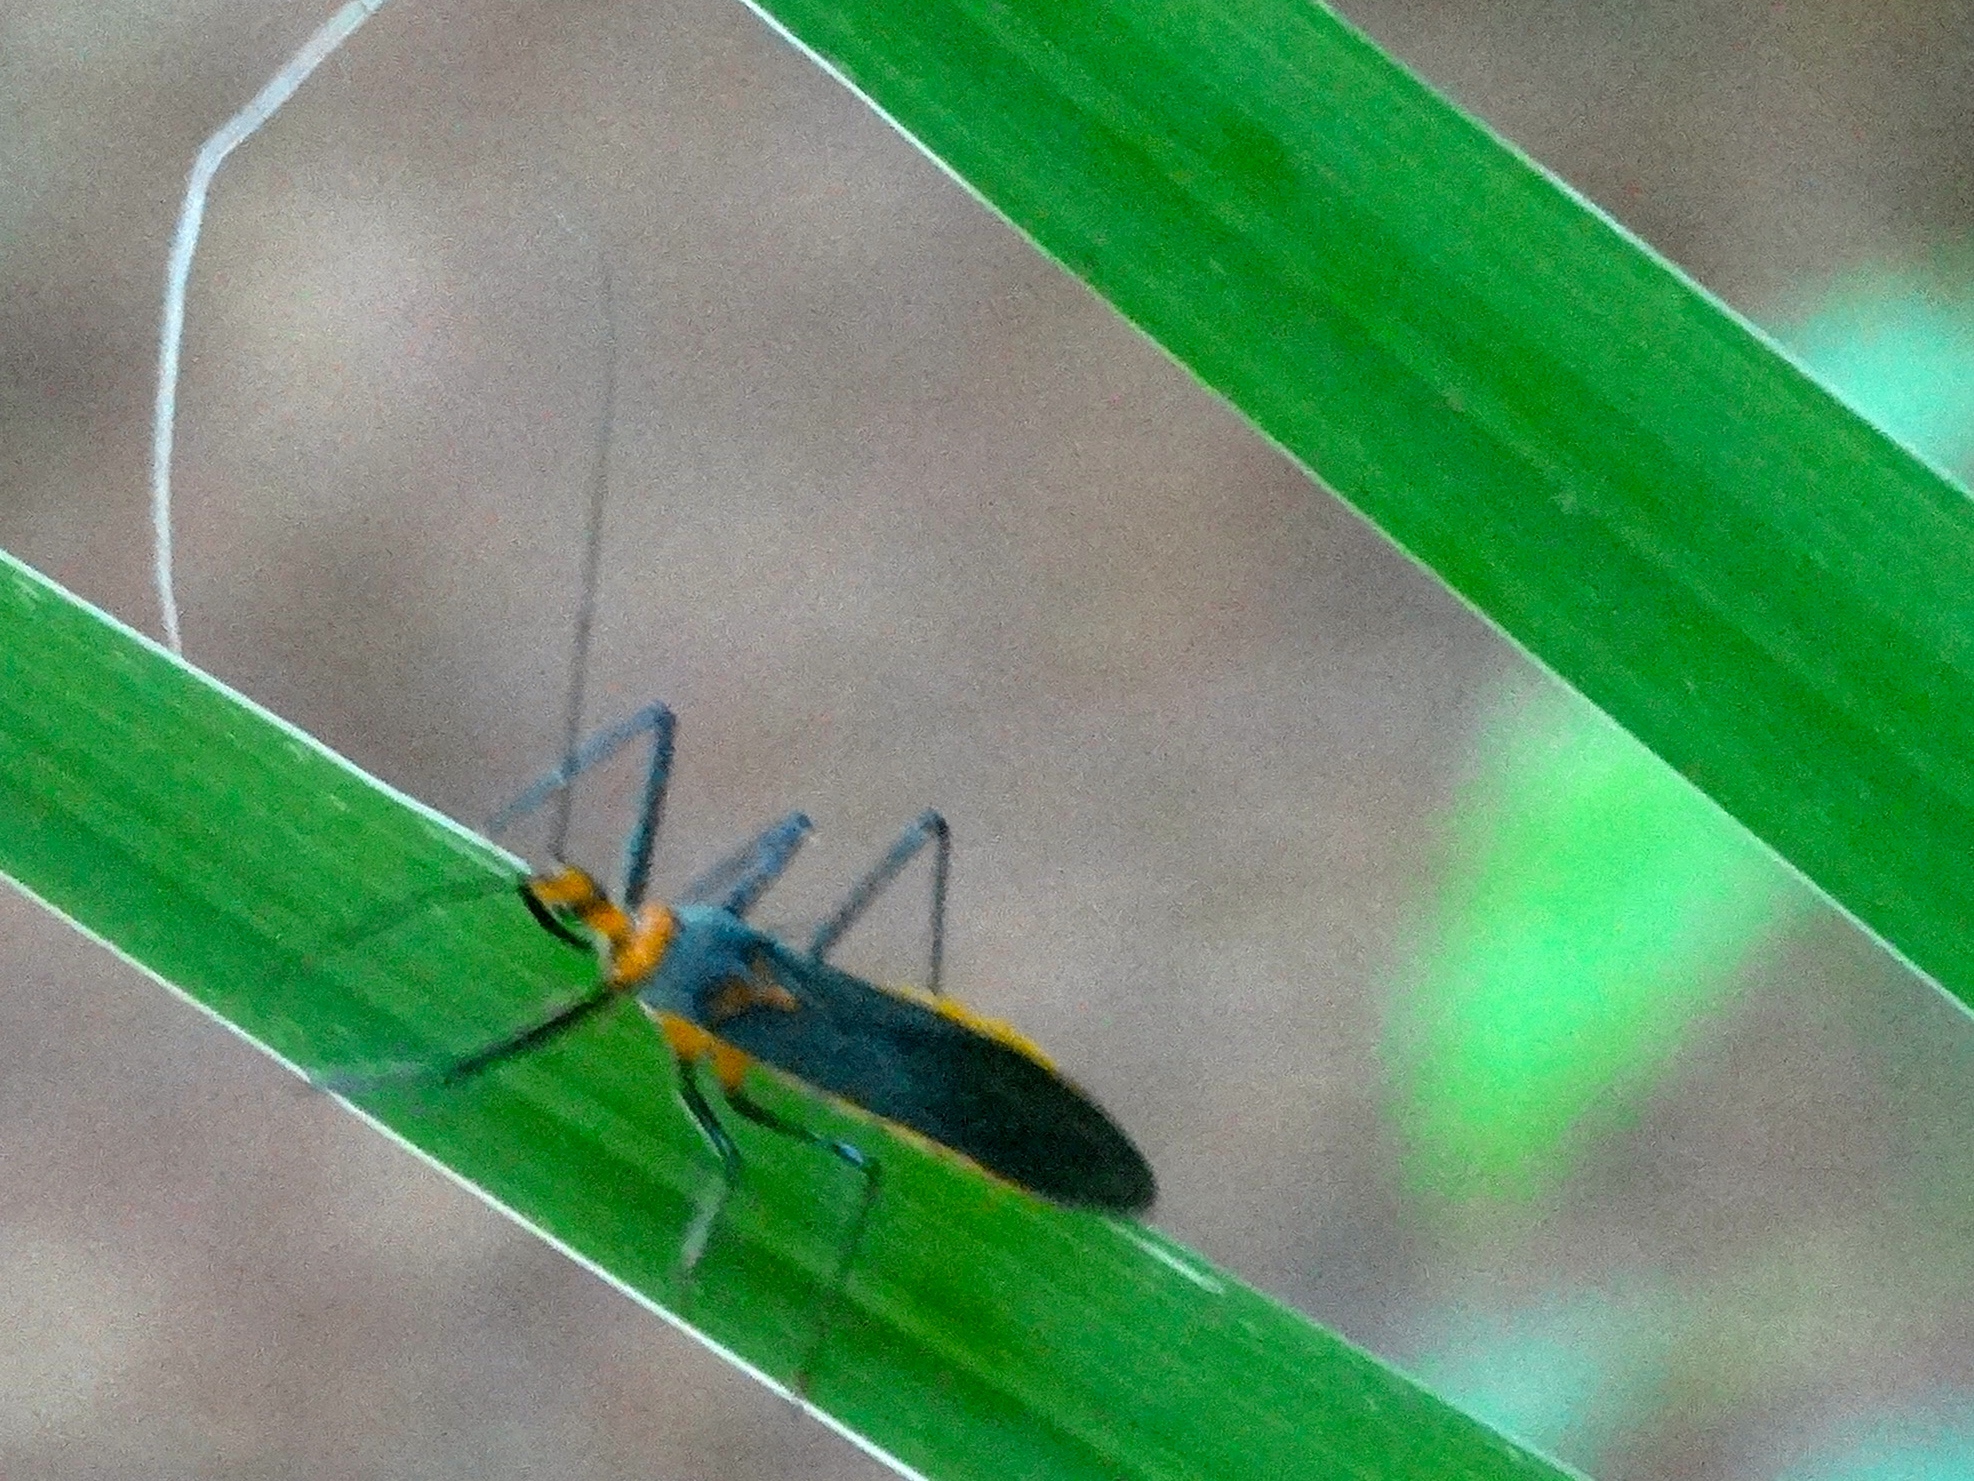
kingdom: Animalia
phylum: Arthropoda
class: Insecta
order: Hemiptera
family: Reduviidae
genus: Repipta
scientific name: Repipta fuscipes
